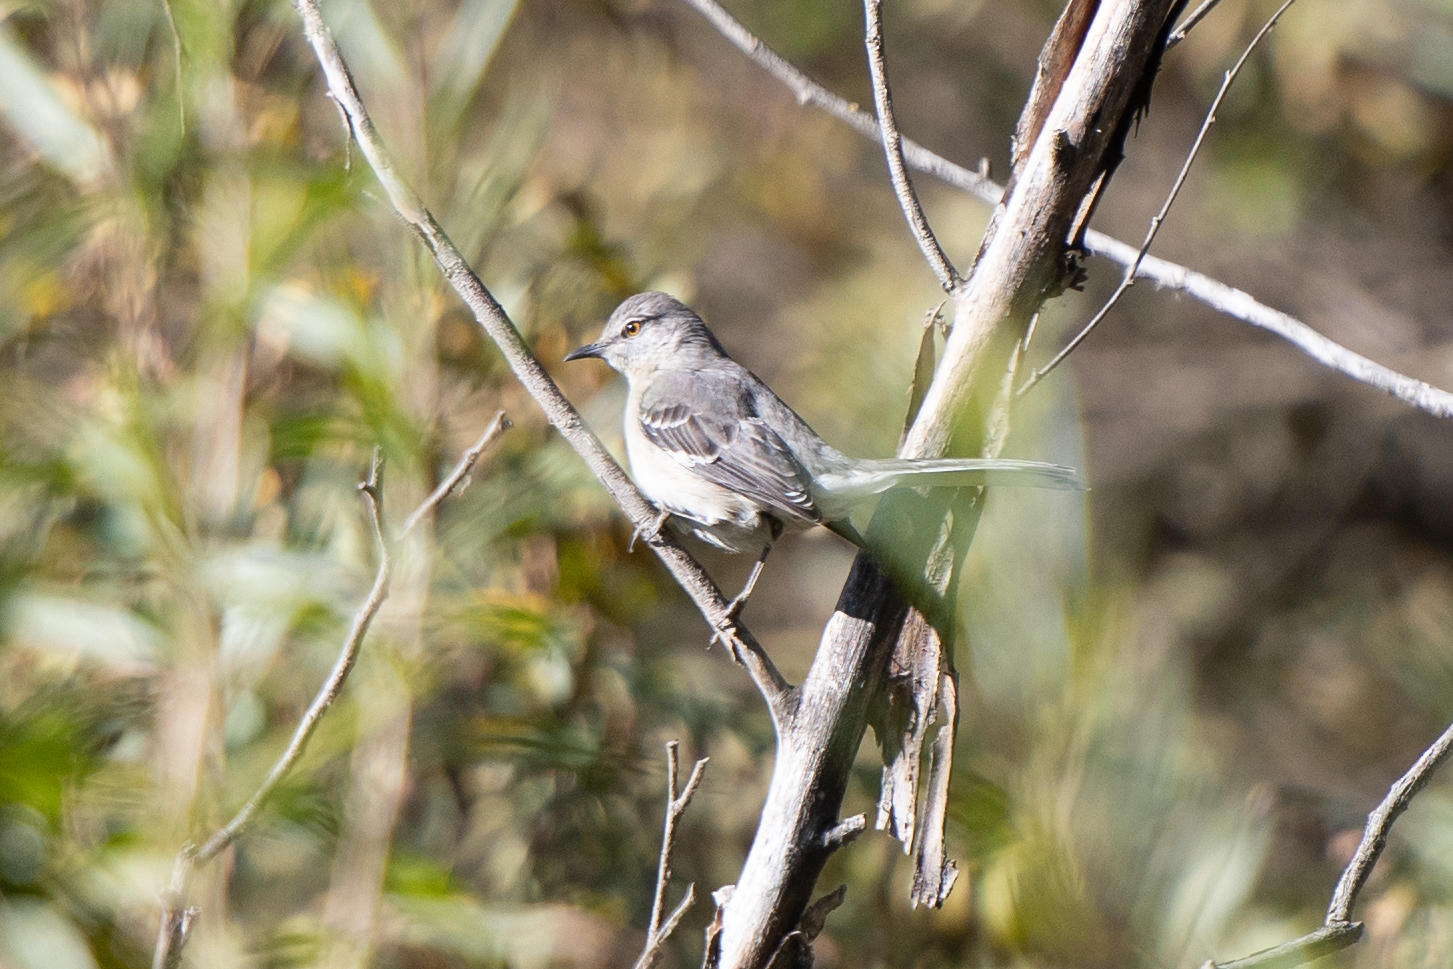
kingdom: Animalia
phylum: Chordata
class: Aves
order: Passeriformes
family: Mimidae
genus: Mimus
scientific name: Mimus polyglottos
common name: Northern mockingbird
